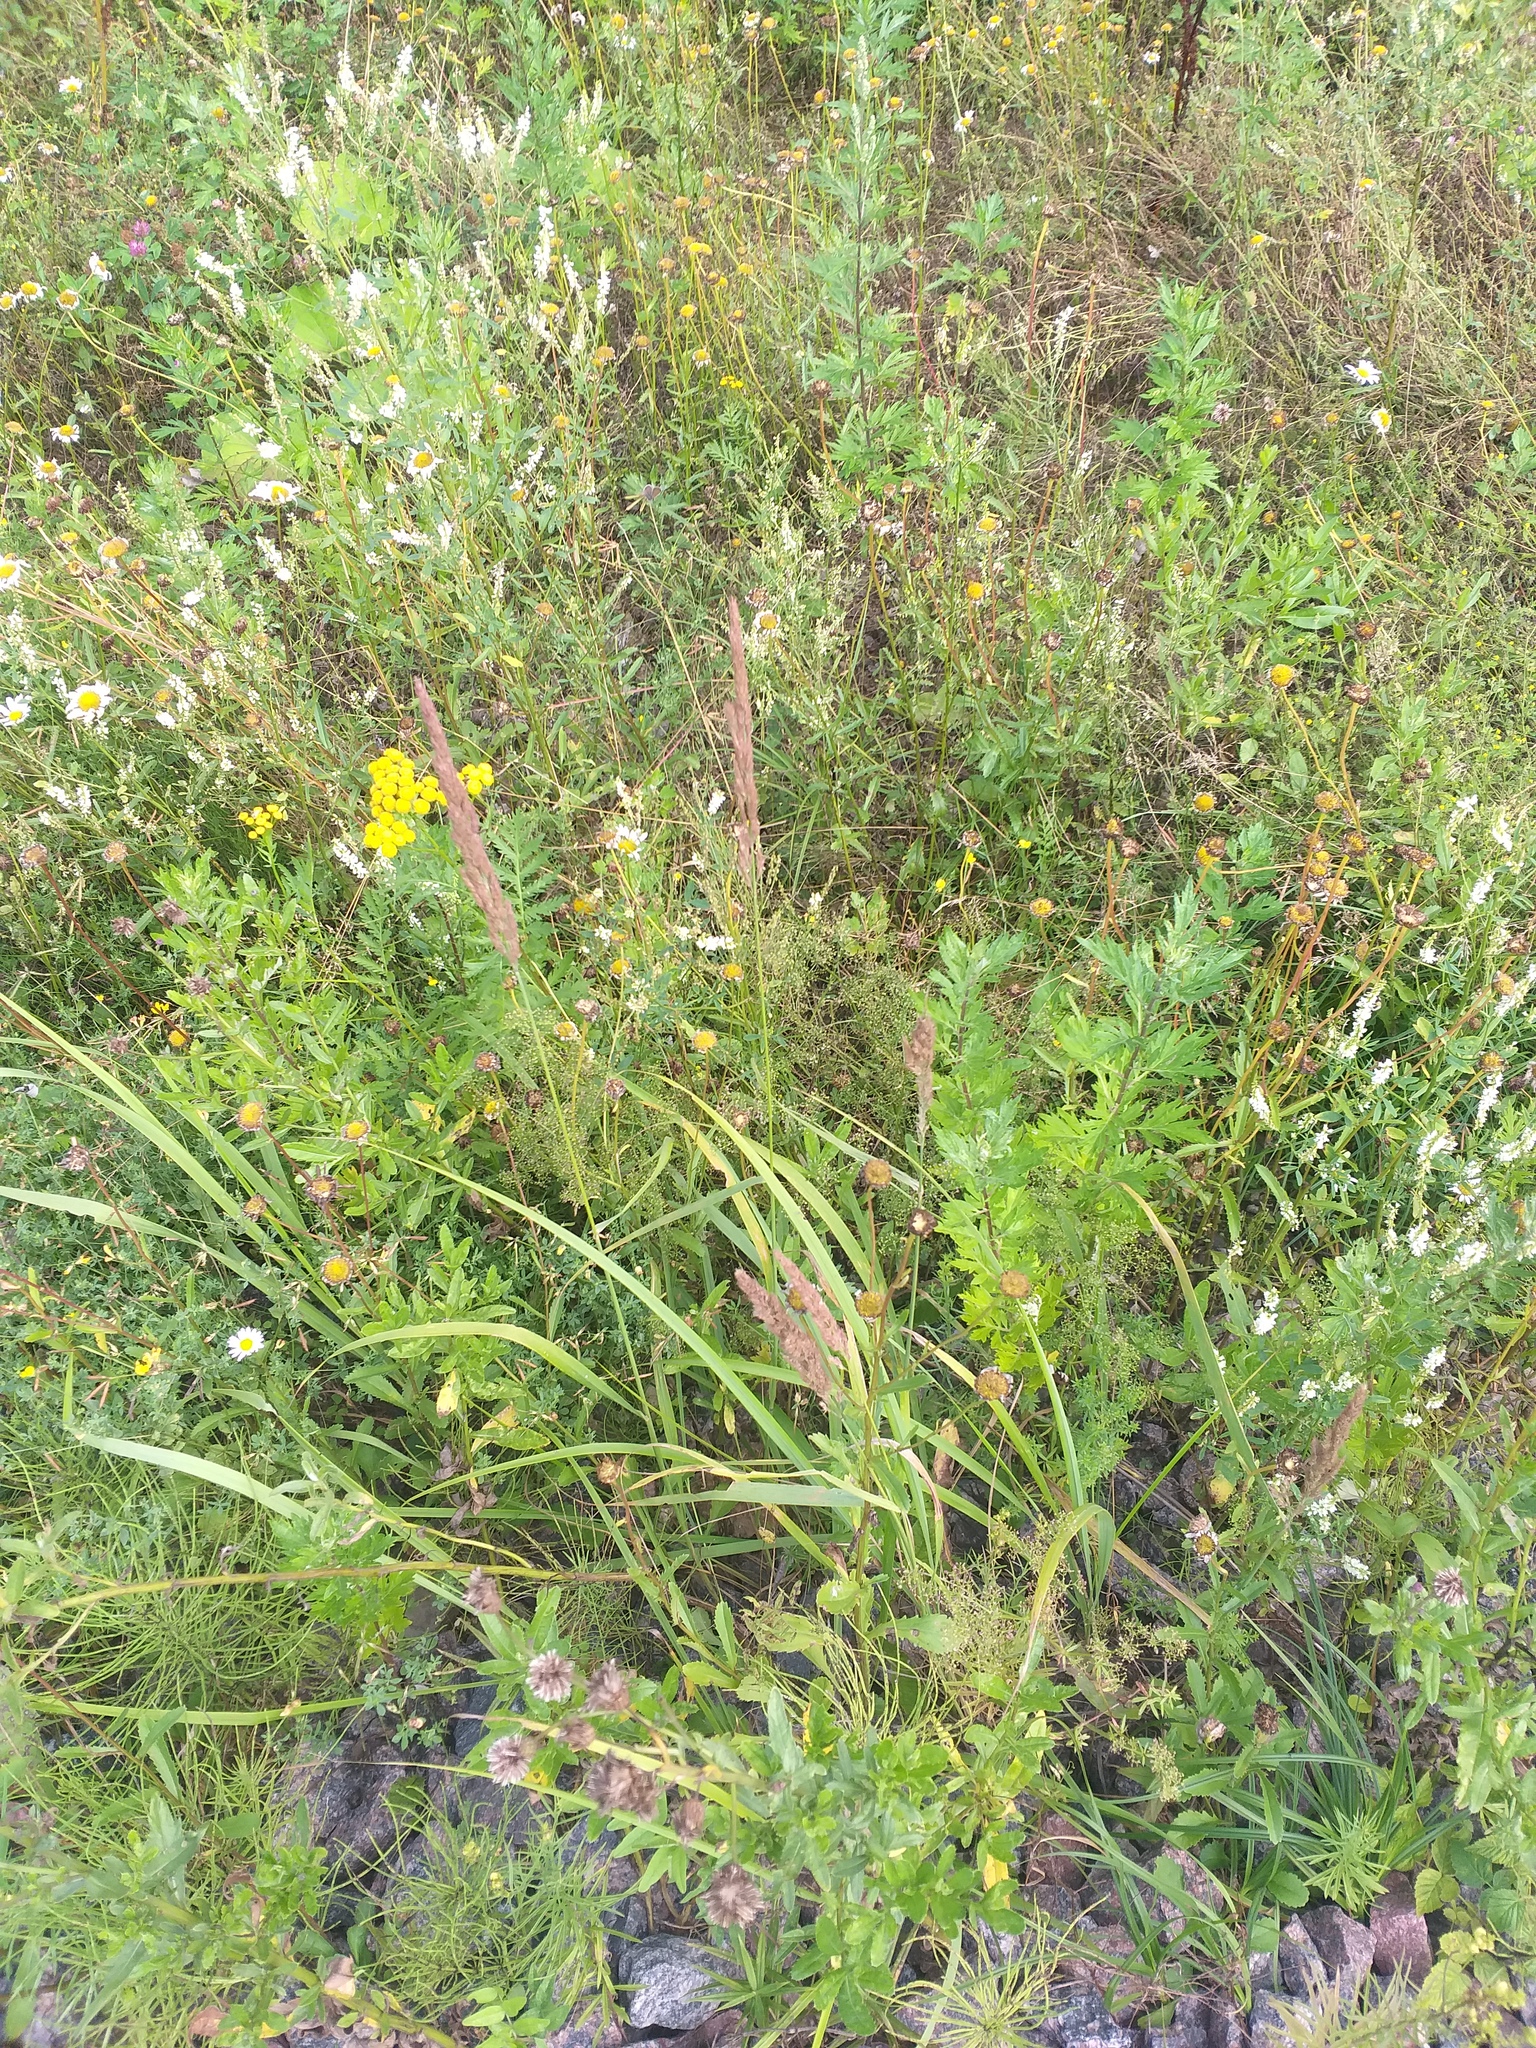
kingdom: Plantae
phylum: Tracheophyta
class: Liliopsida
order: Poales
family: Poaceae
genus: Calamagrostis
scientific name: Calamagrostis epigejos
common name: Wood small-reed
